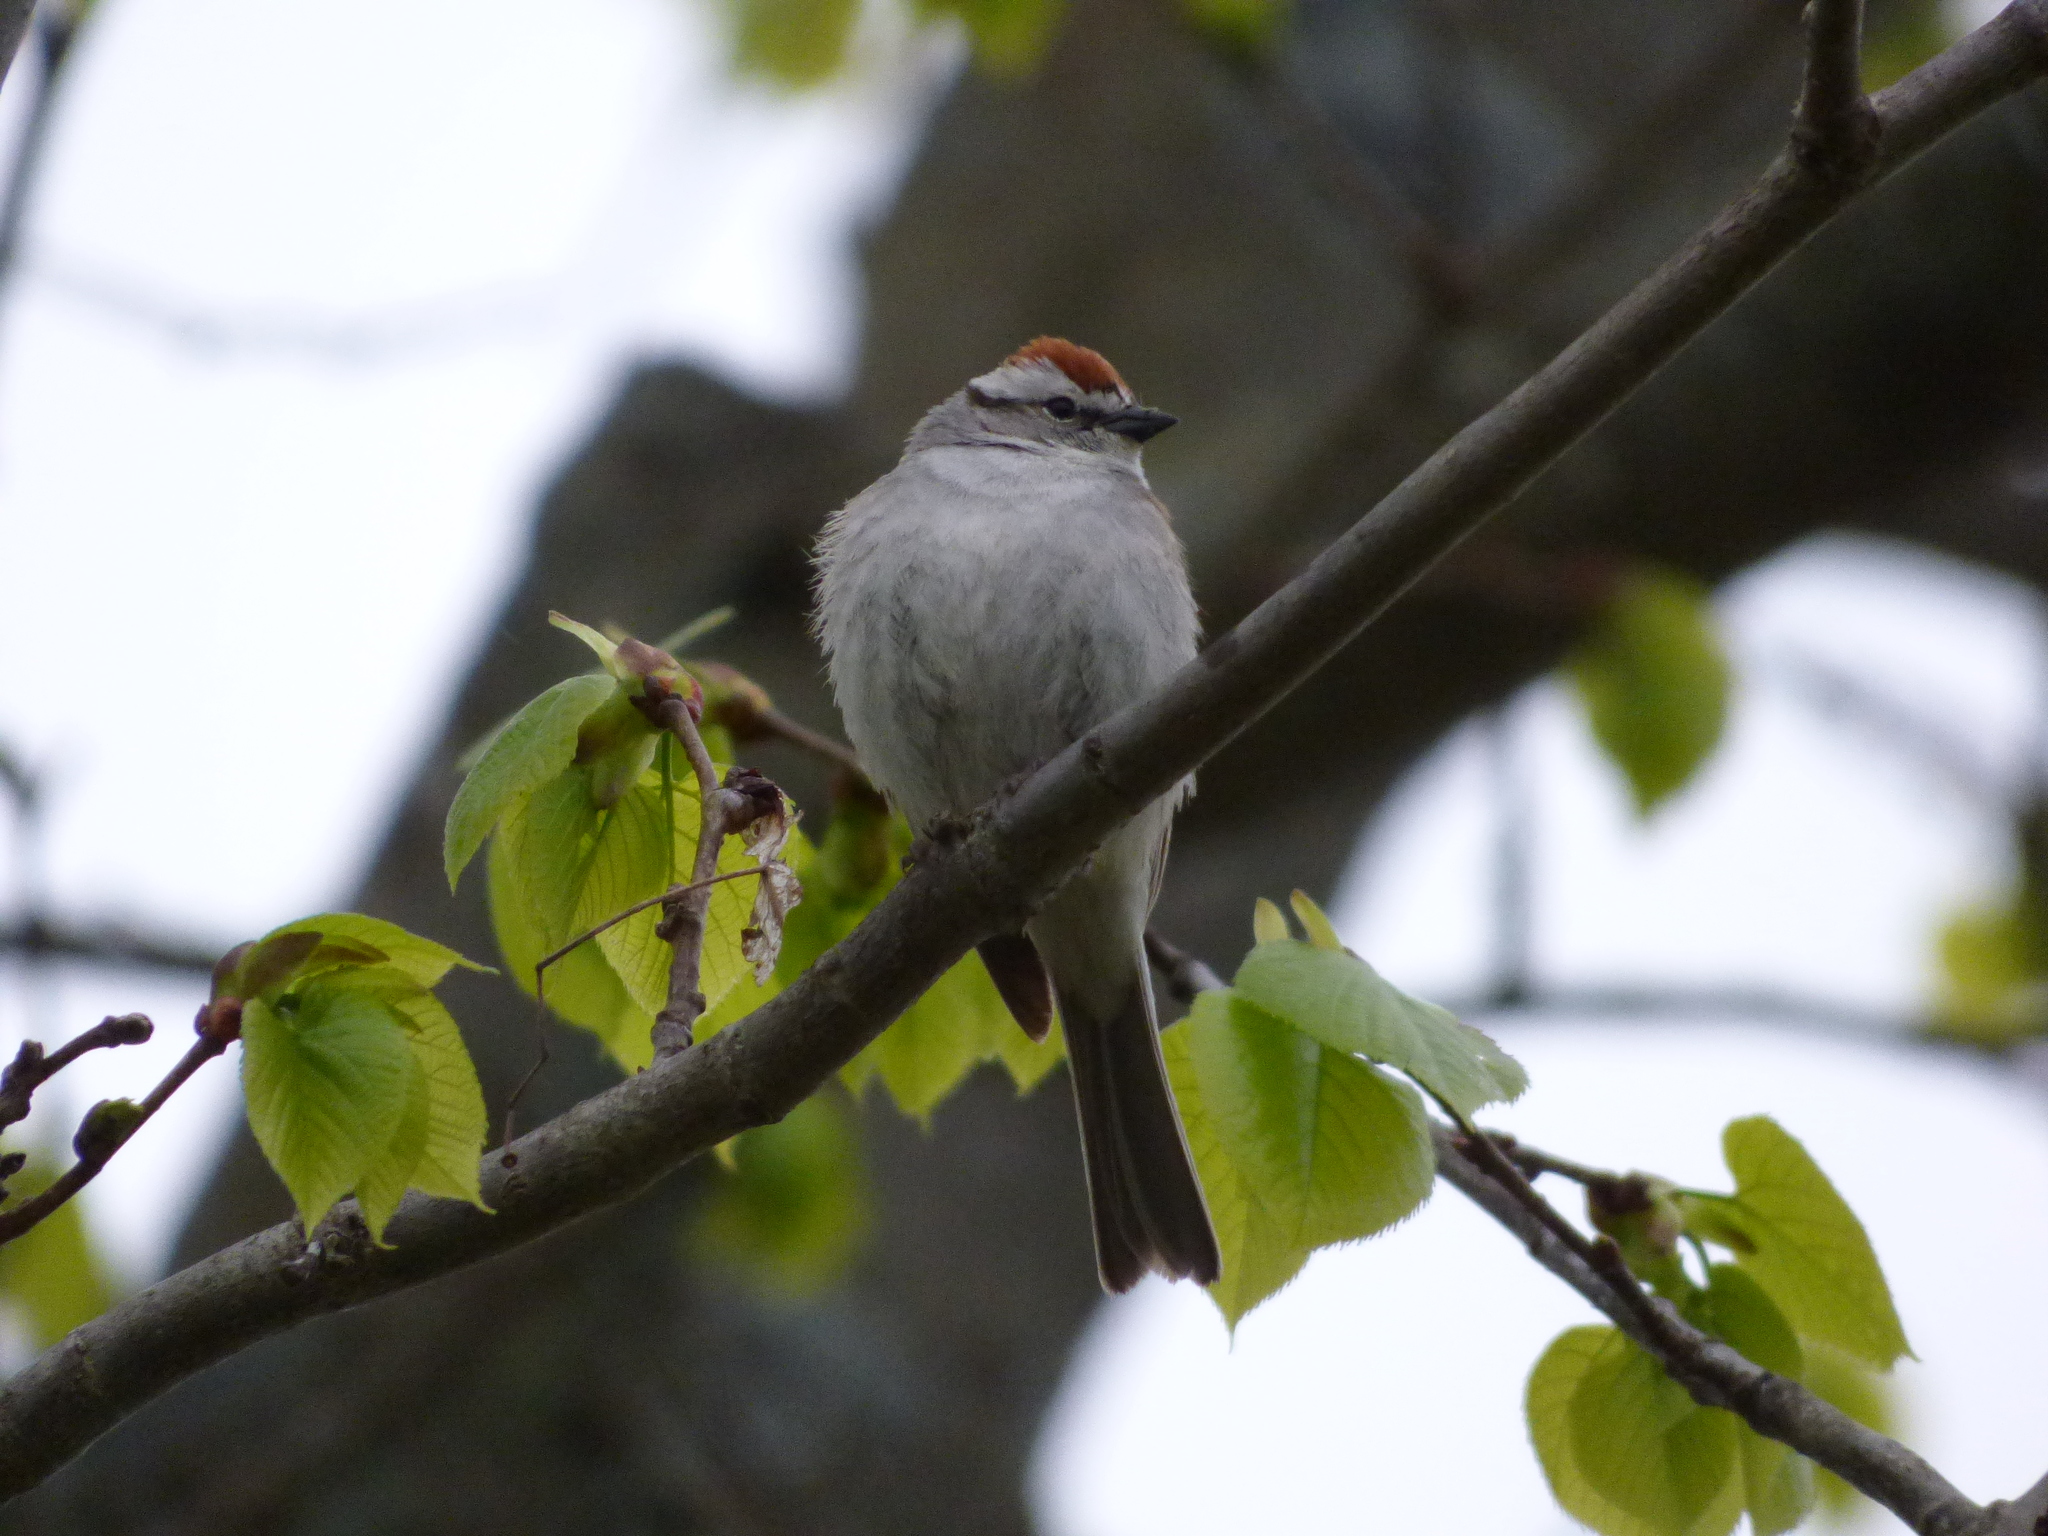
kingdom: Animalia
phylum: Chordata
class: Aves
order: Passeriformes
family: Passerellidae
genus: Spizella
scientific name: Spizella passerina
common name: Chipping sparrow
